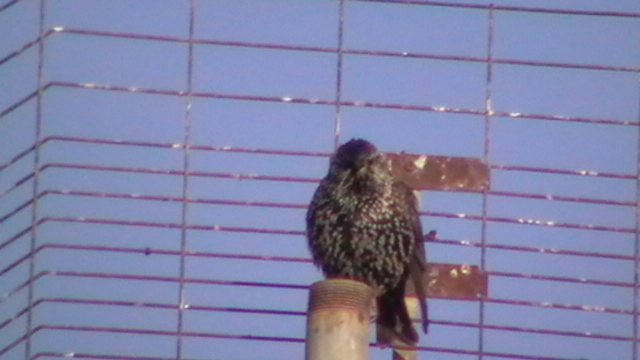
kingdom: Animalia
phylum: Chordata
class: Aves
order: Passeriformes
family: Sturnidae
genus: Sturnus
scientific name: Sturnus vulgaris
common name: Common starling
